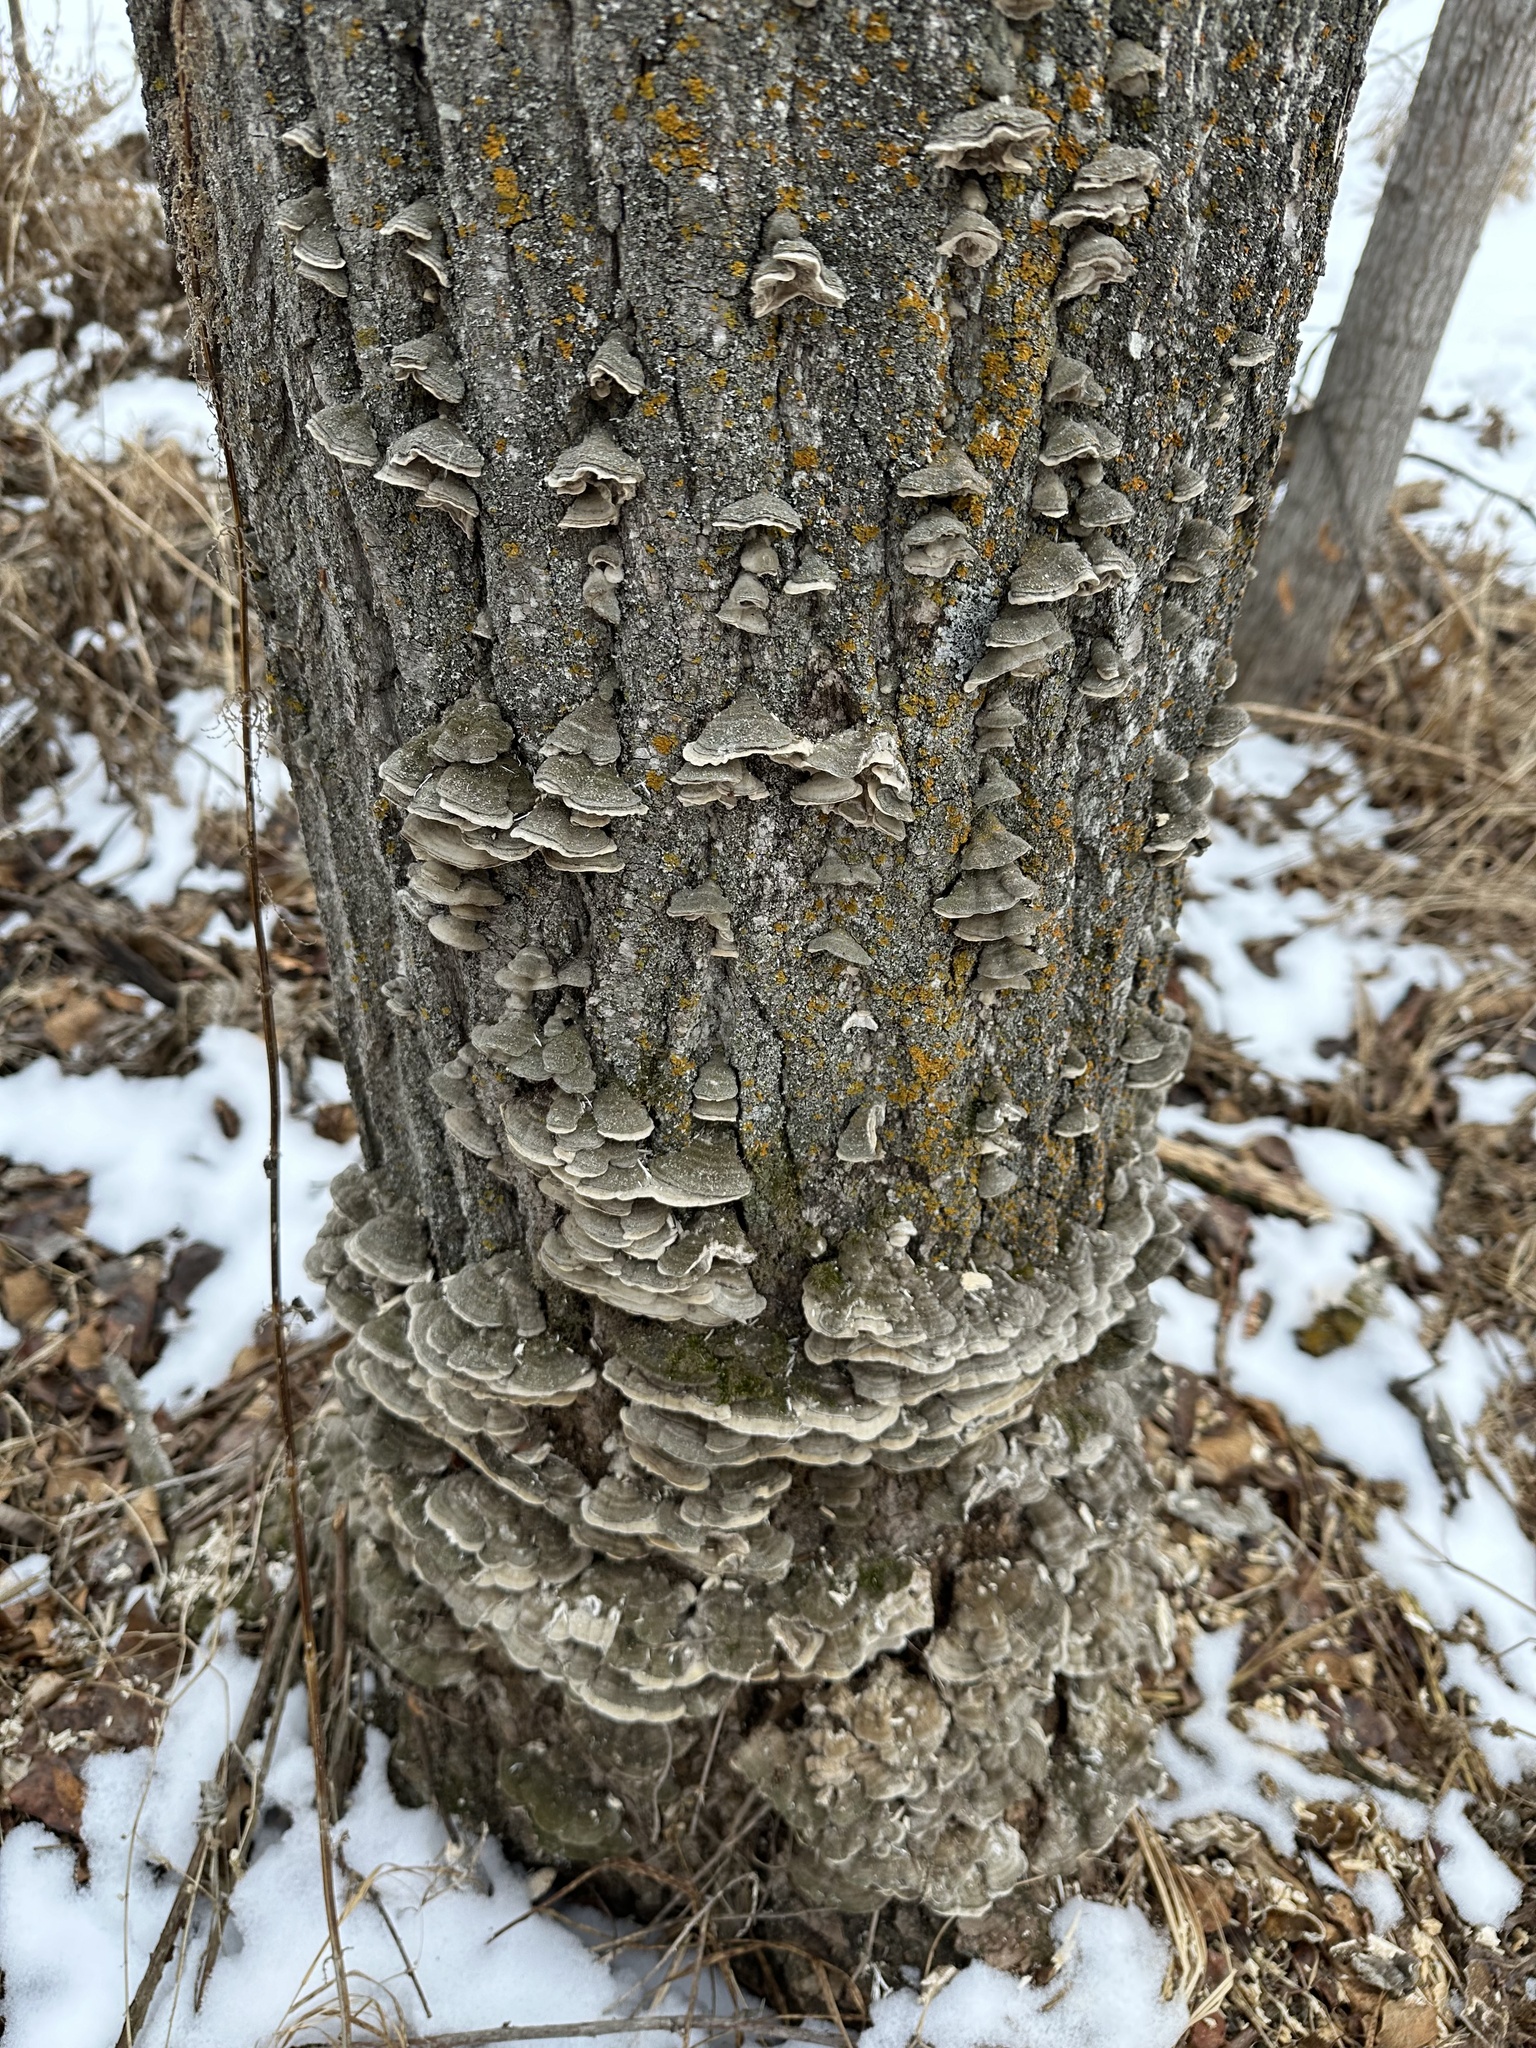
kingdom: Fungi
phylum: Basidiomycota
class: Agaricomycetes
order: Polyporales
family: Cerrenaceae
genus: Cerrena
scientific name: Cerrena unicolor
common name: Mossy maze polypore
